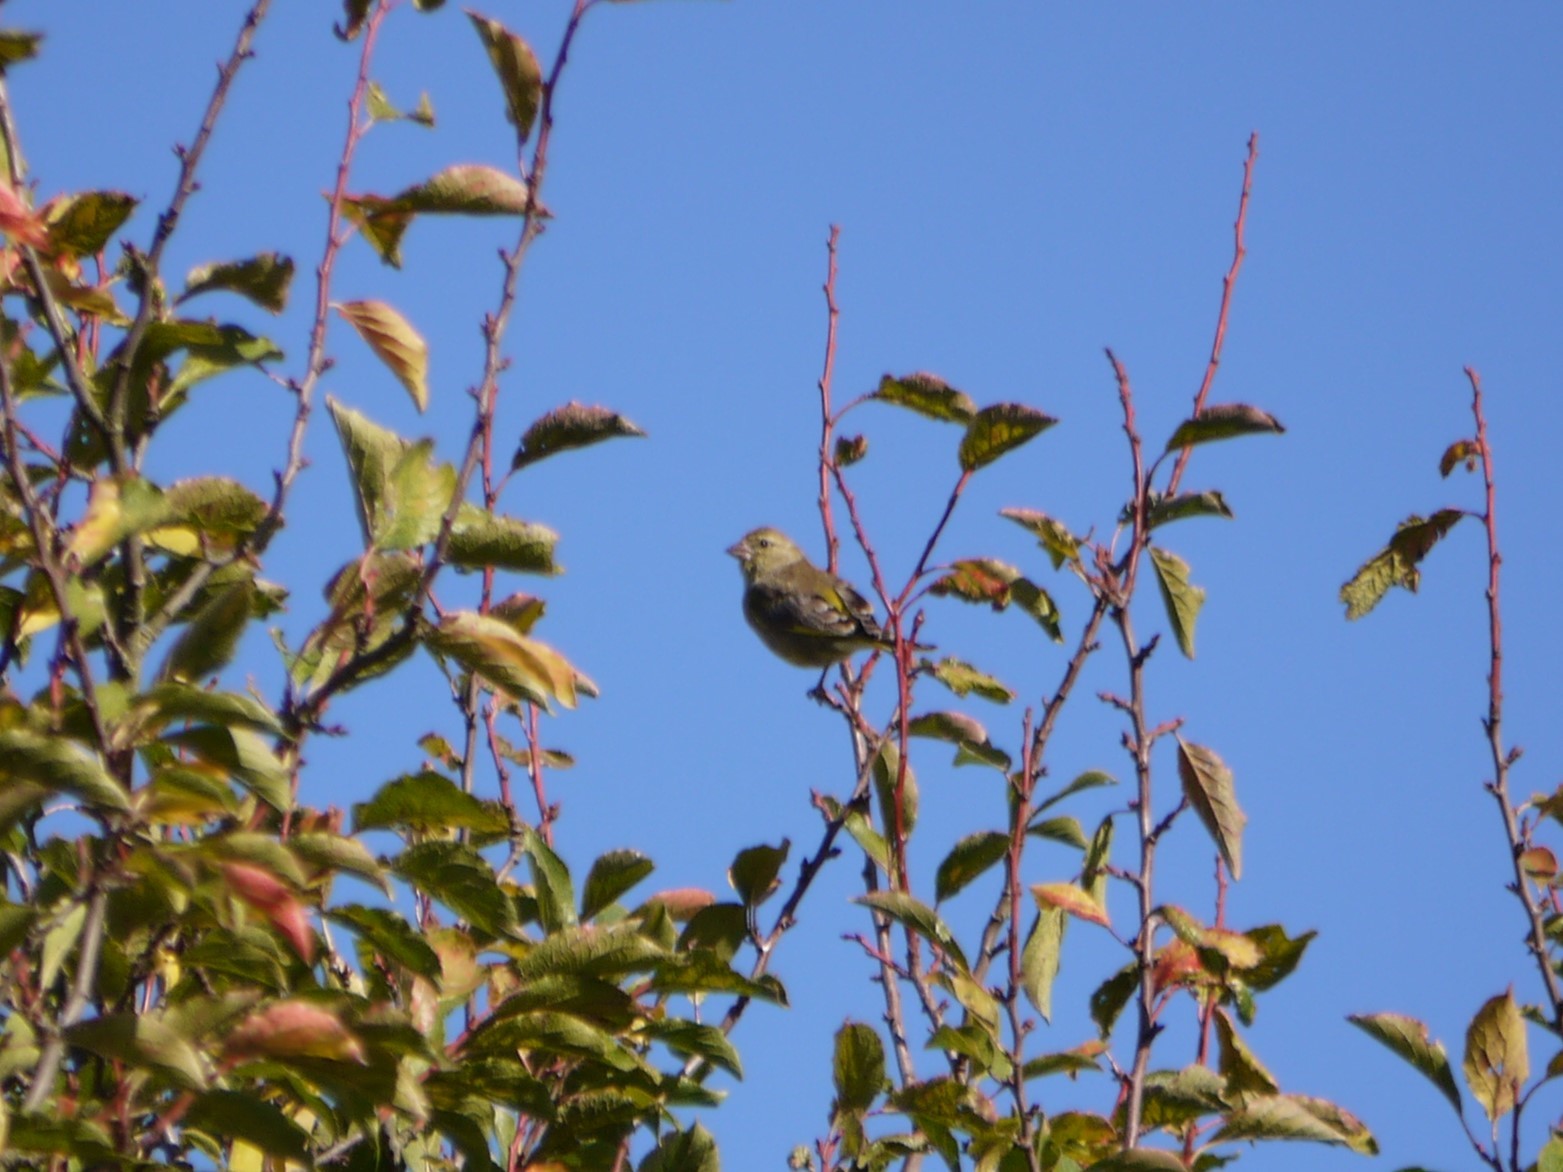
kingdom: Plantae
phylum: Tracheophyta
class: Liliopsida
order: Poales
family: Poaceae
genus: Chloris
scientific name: Chloris chloris
